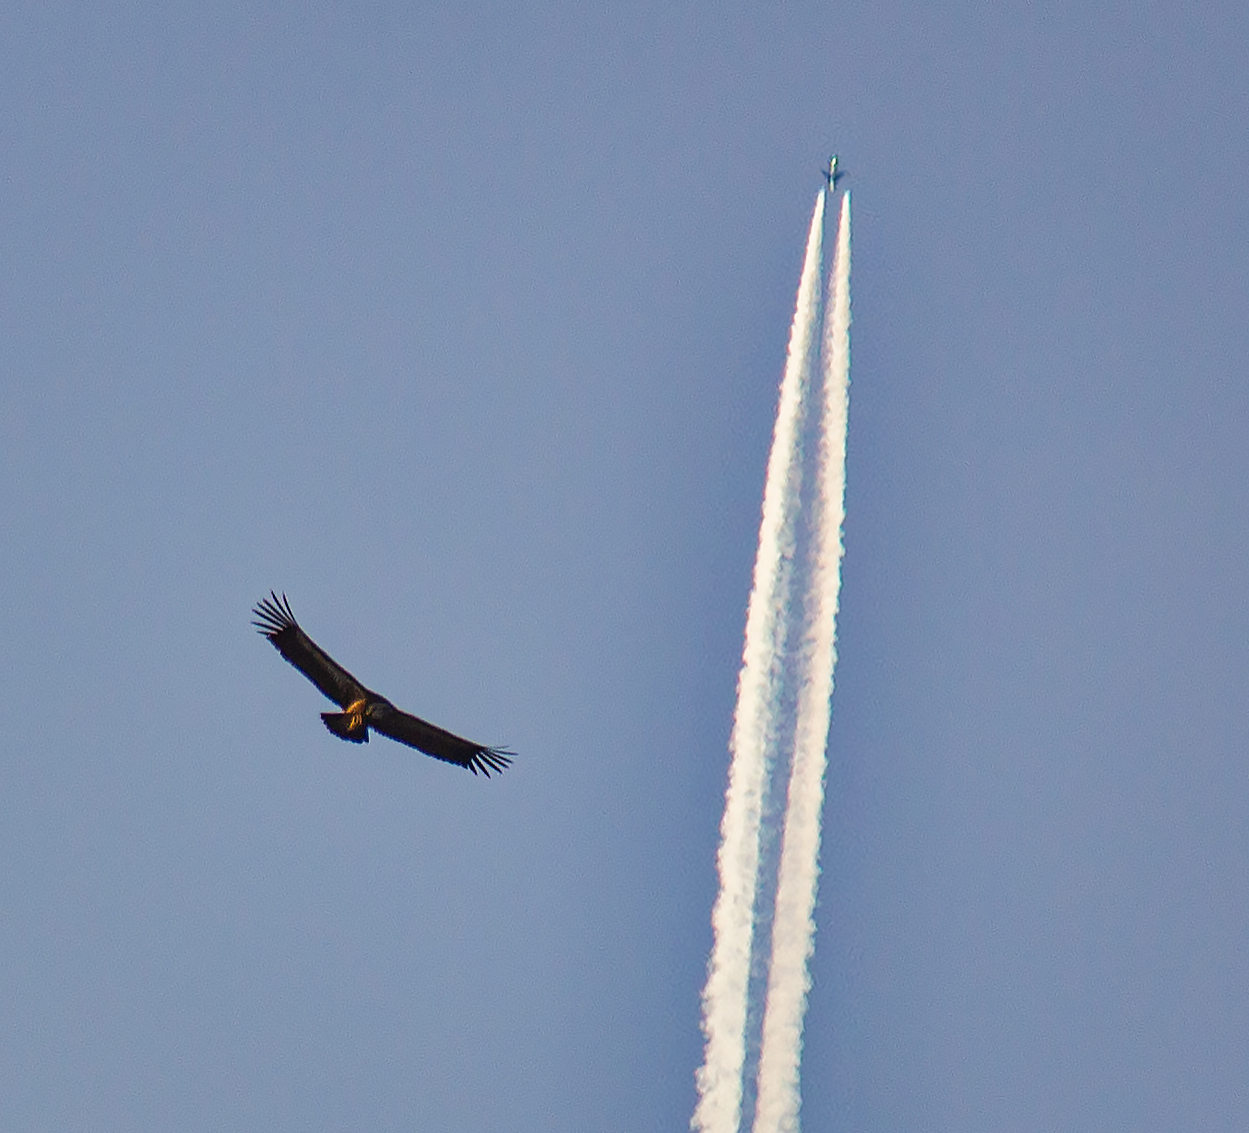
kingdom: Animalia
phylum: Chordata
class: Aves
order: Accipitriformes
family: Accipitridae
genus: Gyps
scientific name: Gyps fulvus
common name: Griffon vulture
